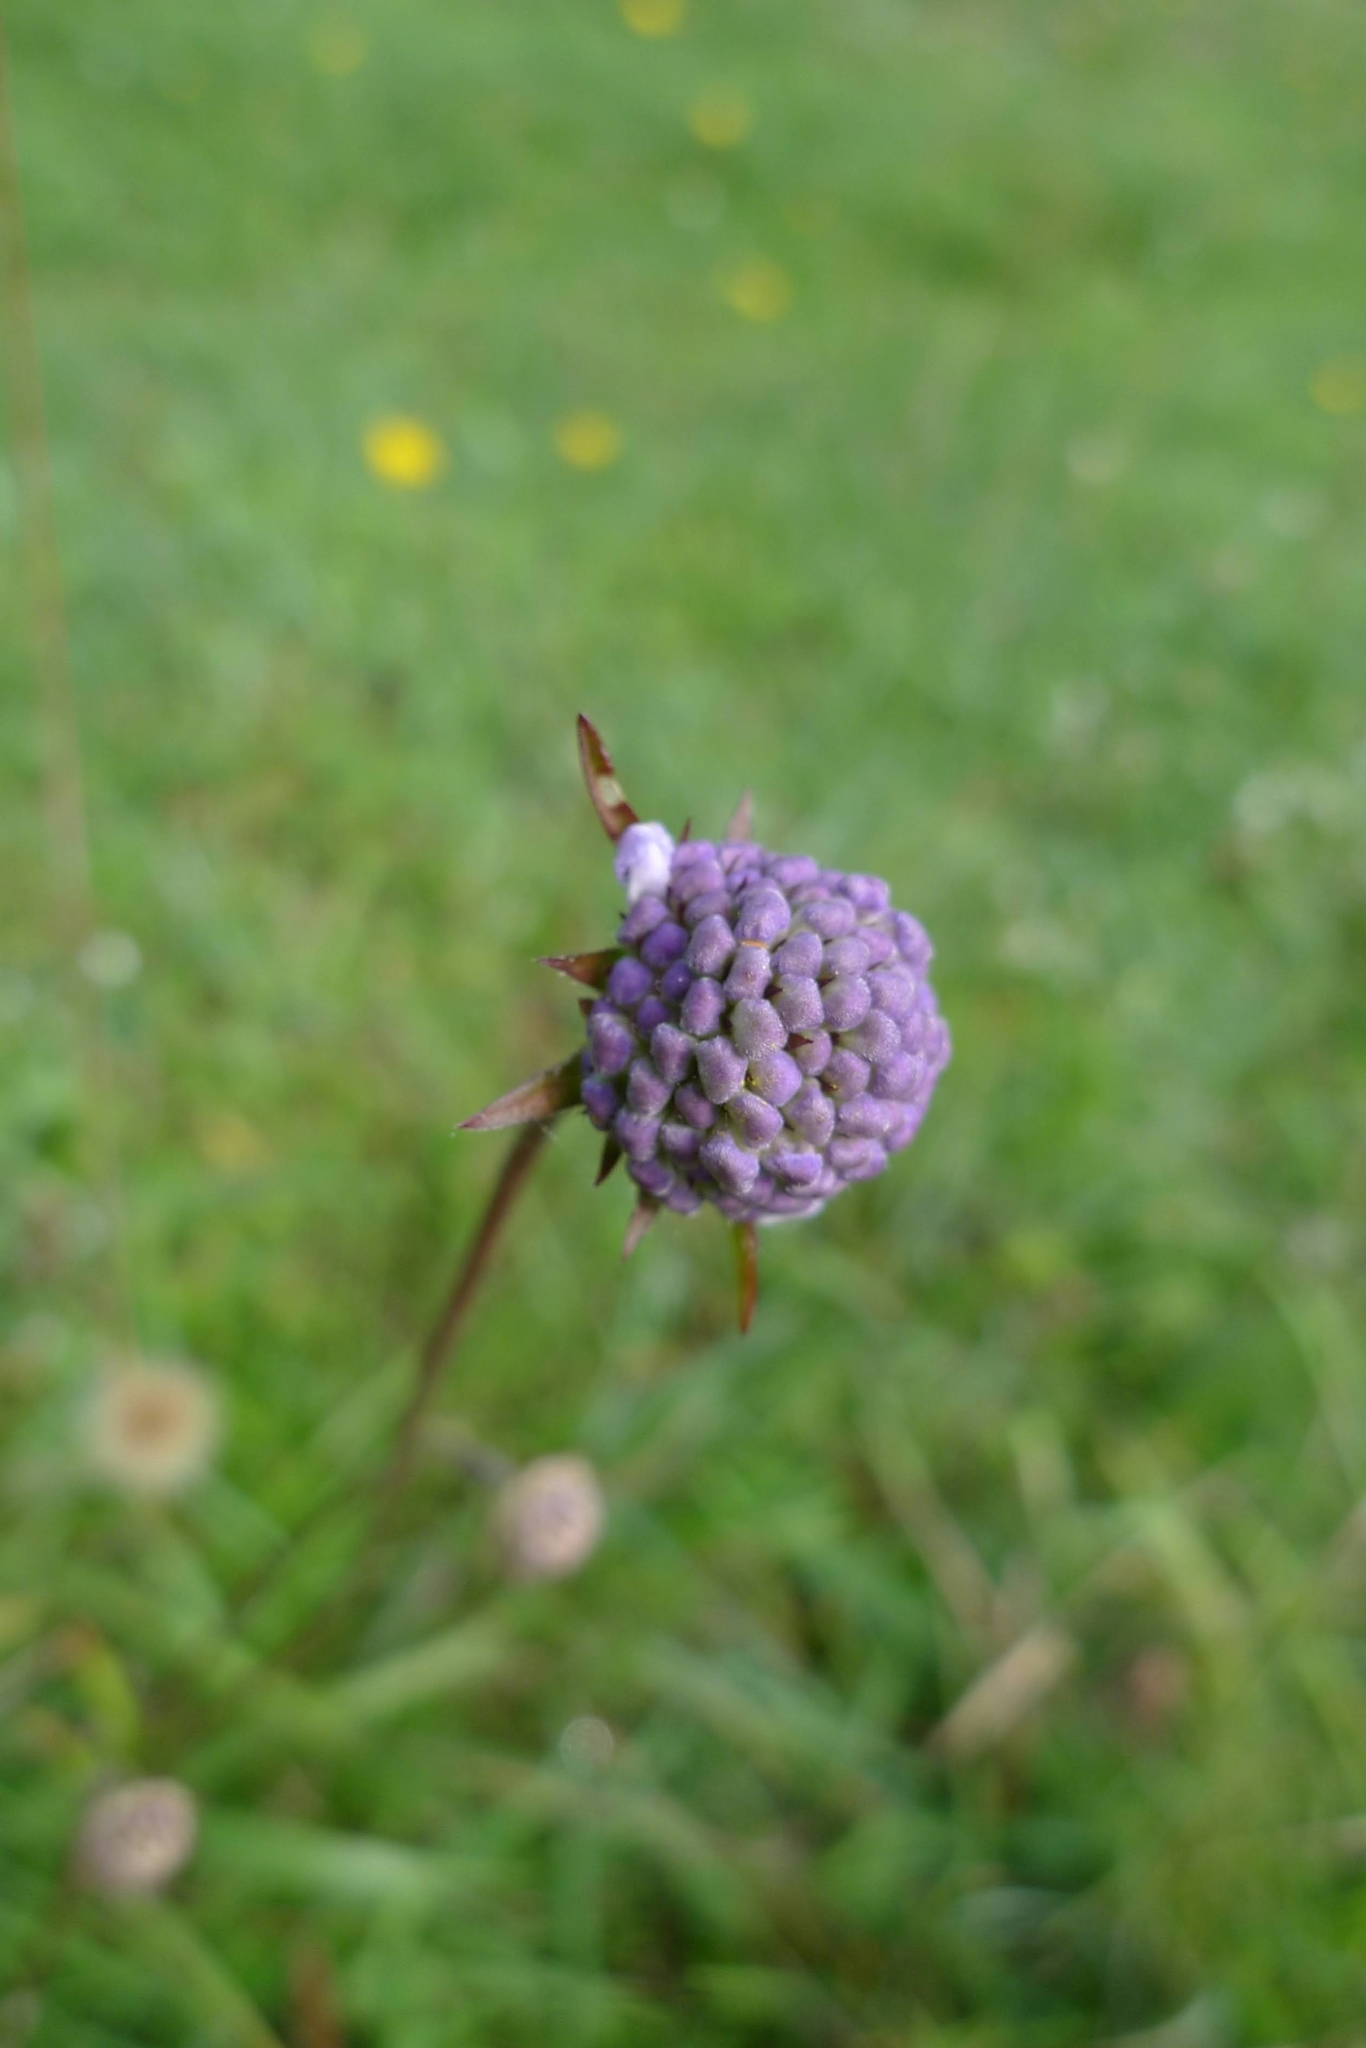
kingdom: Plantae
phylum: Tracheophyta
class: Magnoliopsida
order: Dipsacales
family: Caprifoliaceae
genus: Succisa
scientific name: Succisa pratensis
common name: Devil's-bit
